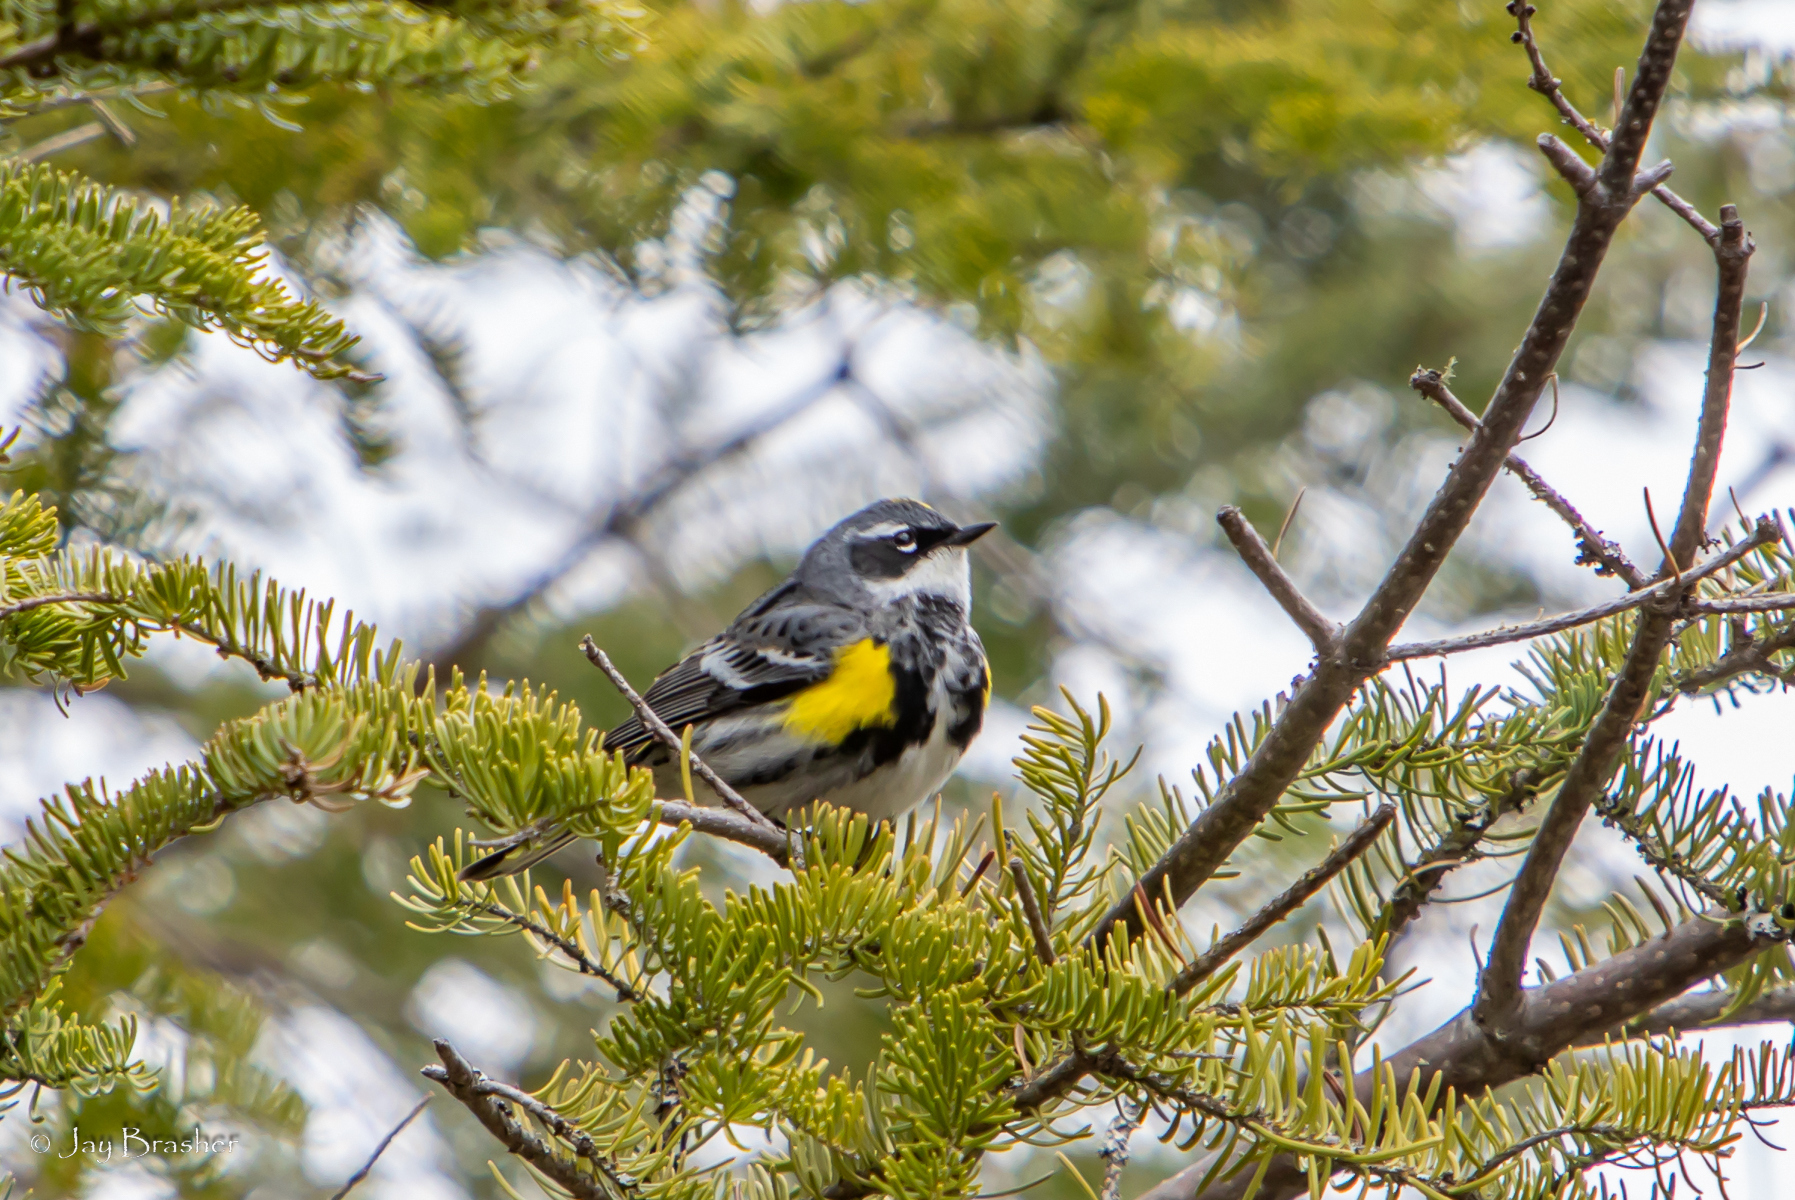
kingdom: Animalia
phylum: Chordata
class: Aves
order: Passeriformes
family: Parulidae
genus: Setophaga
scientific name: Setophaga coronata
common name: Myrtle warbler
